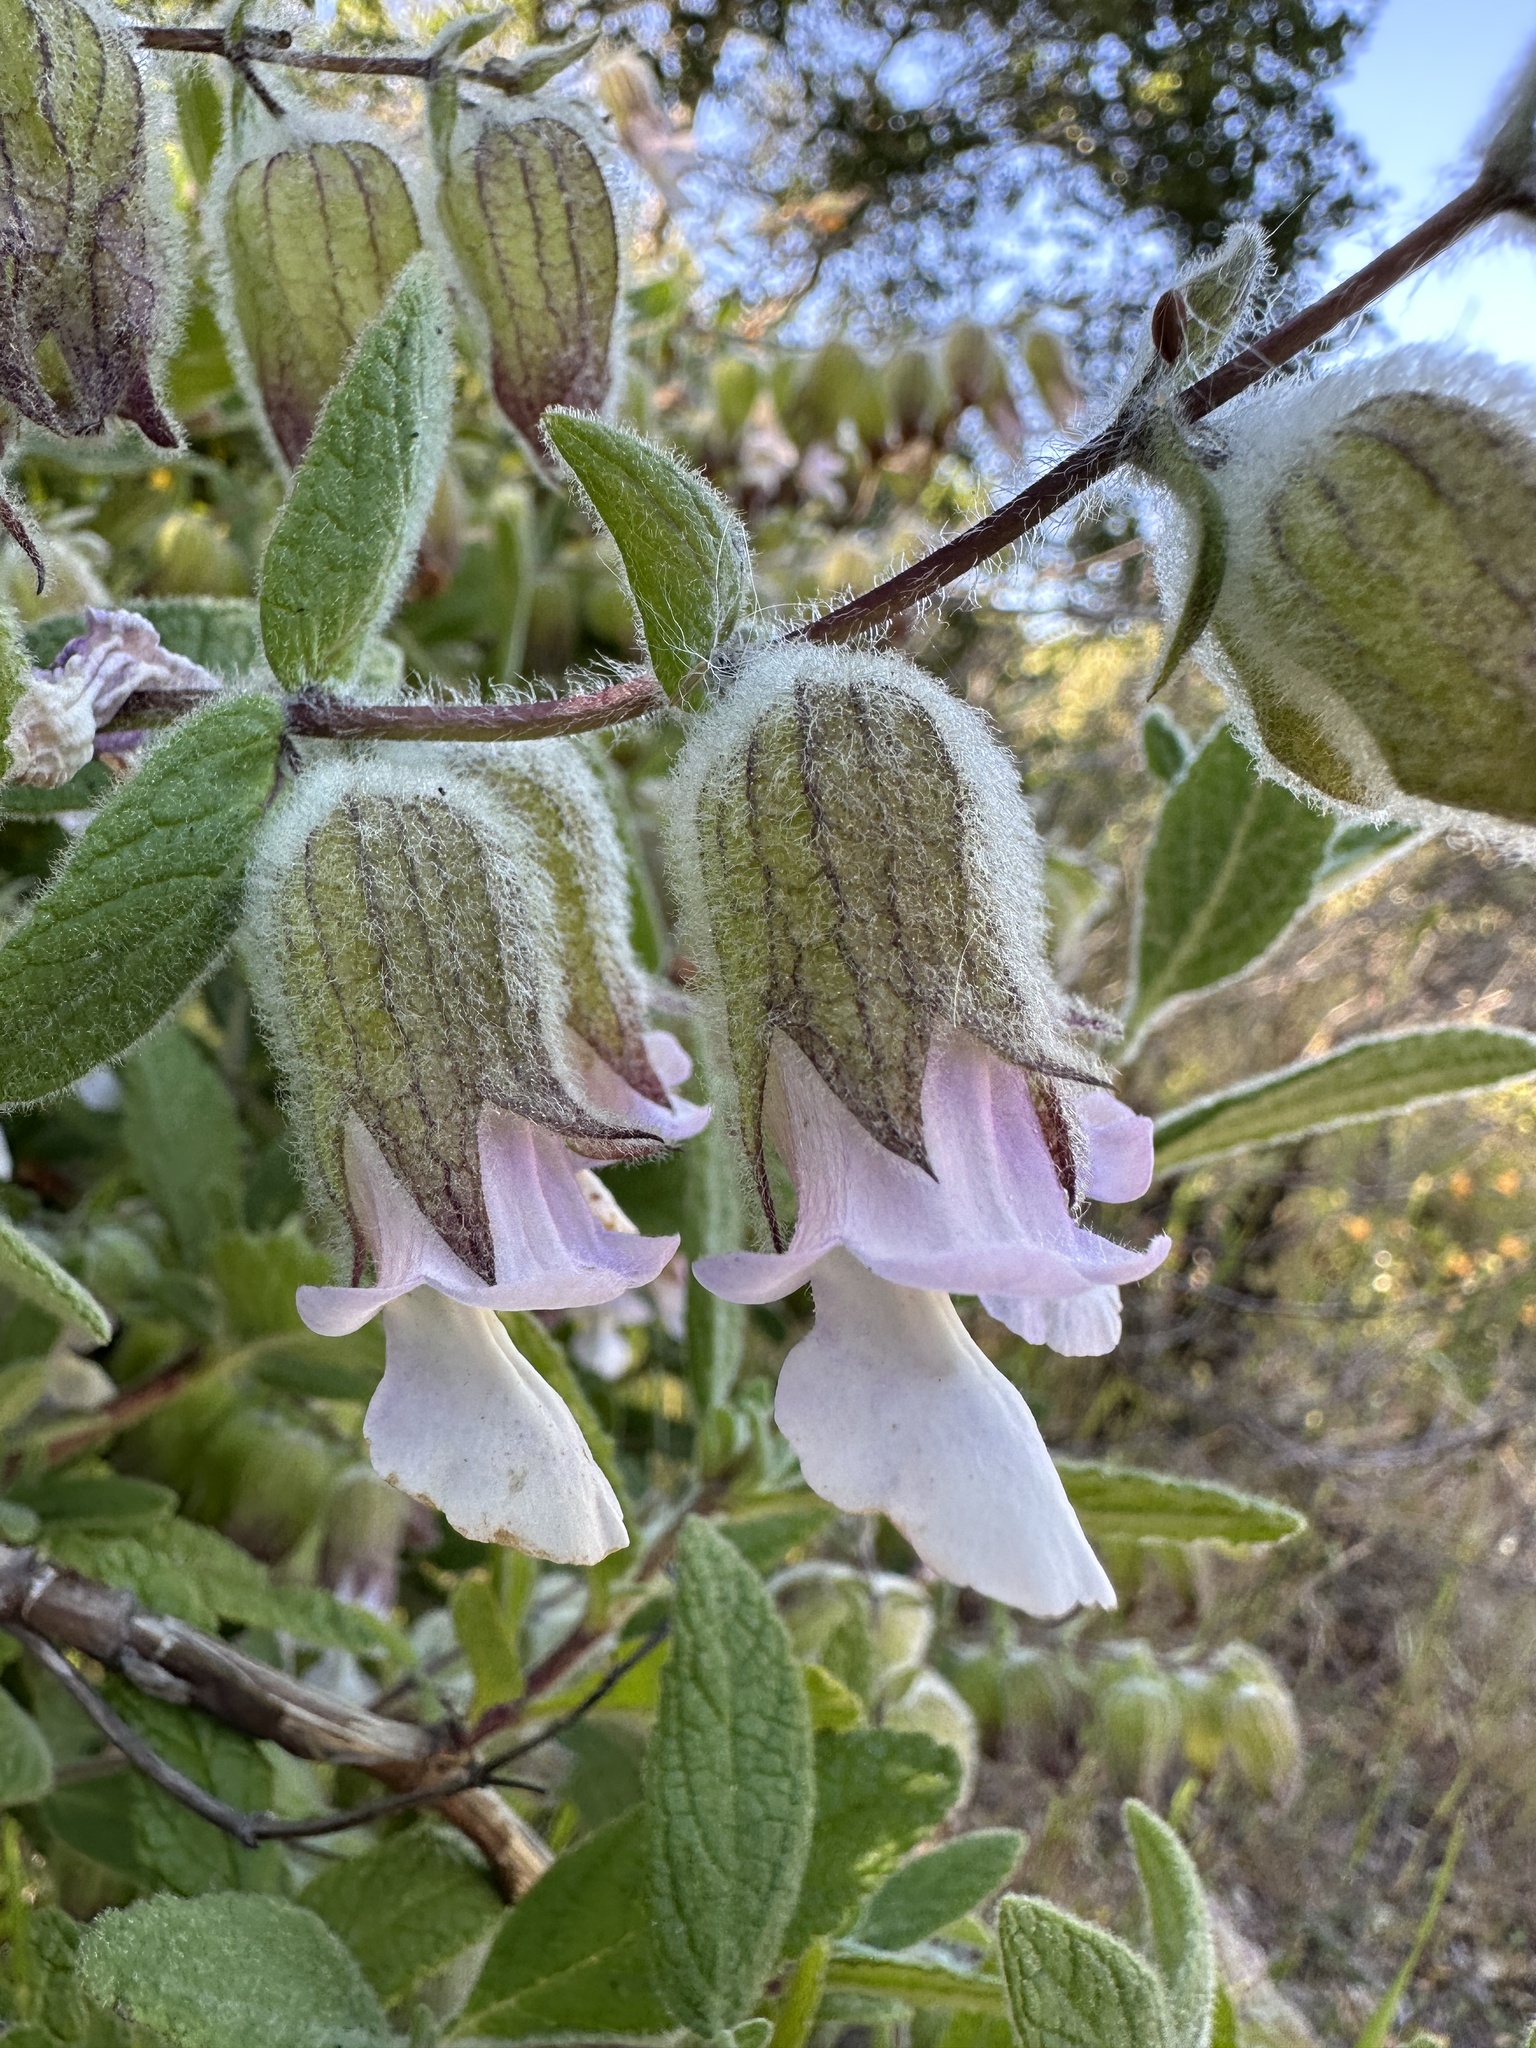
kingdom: Plantae
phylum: Tracheophyta
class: Magnoliopsida
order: Lamiales
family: Lamiaceae
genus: Lepechinia
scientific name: Lepechinia calycina
